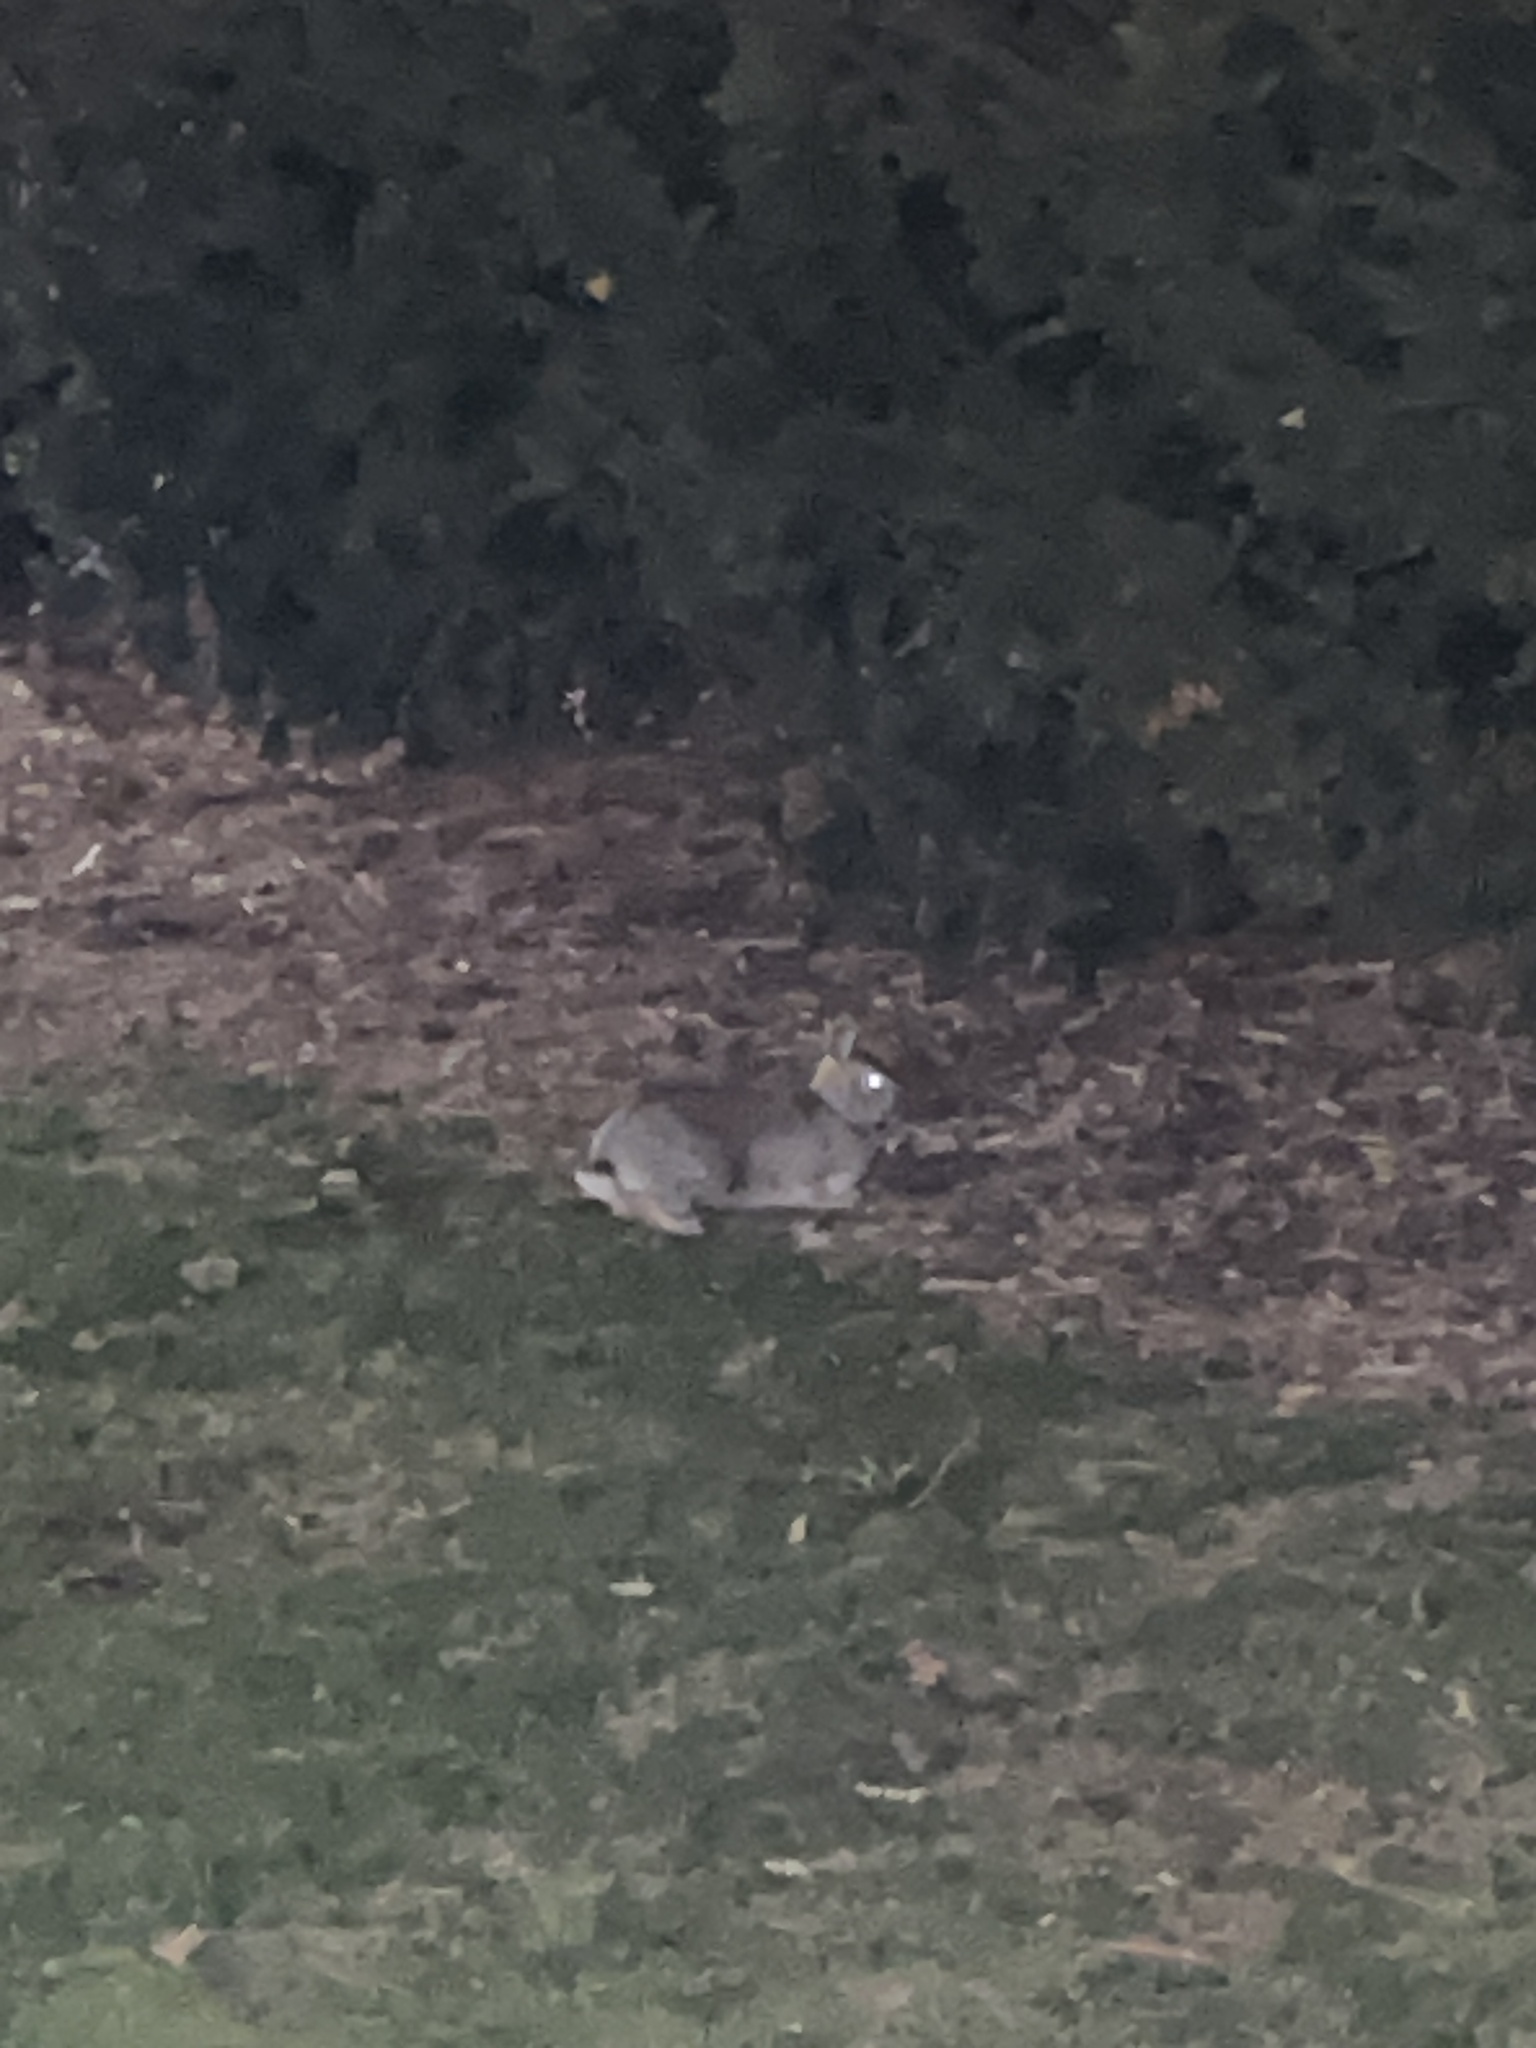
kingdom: Animalia
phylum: Chordata
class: Mammalia
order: Lagomorpha
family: Leporidae
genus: Sylvilagus
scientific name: Sylvilagus floridanus
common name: Eastern cottontail
